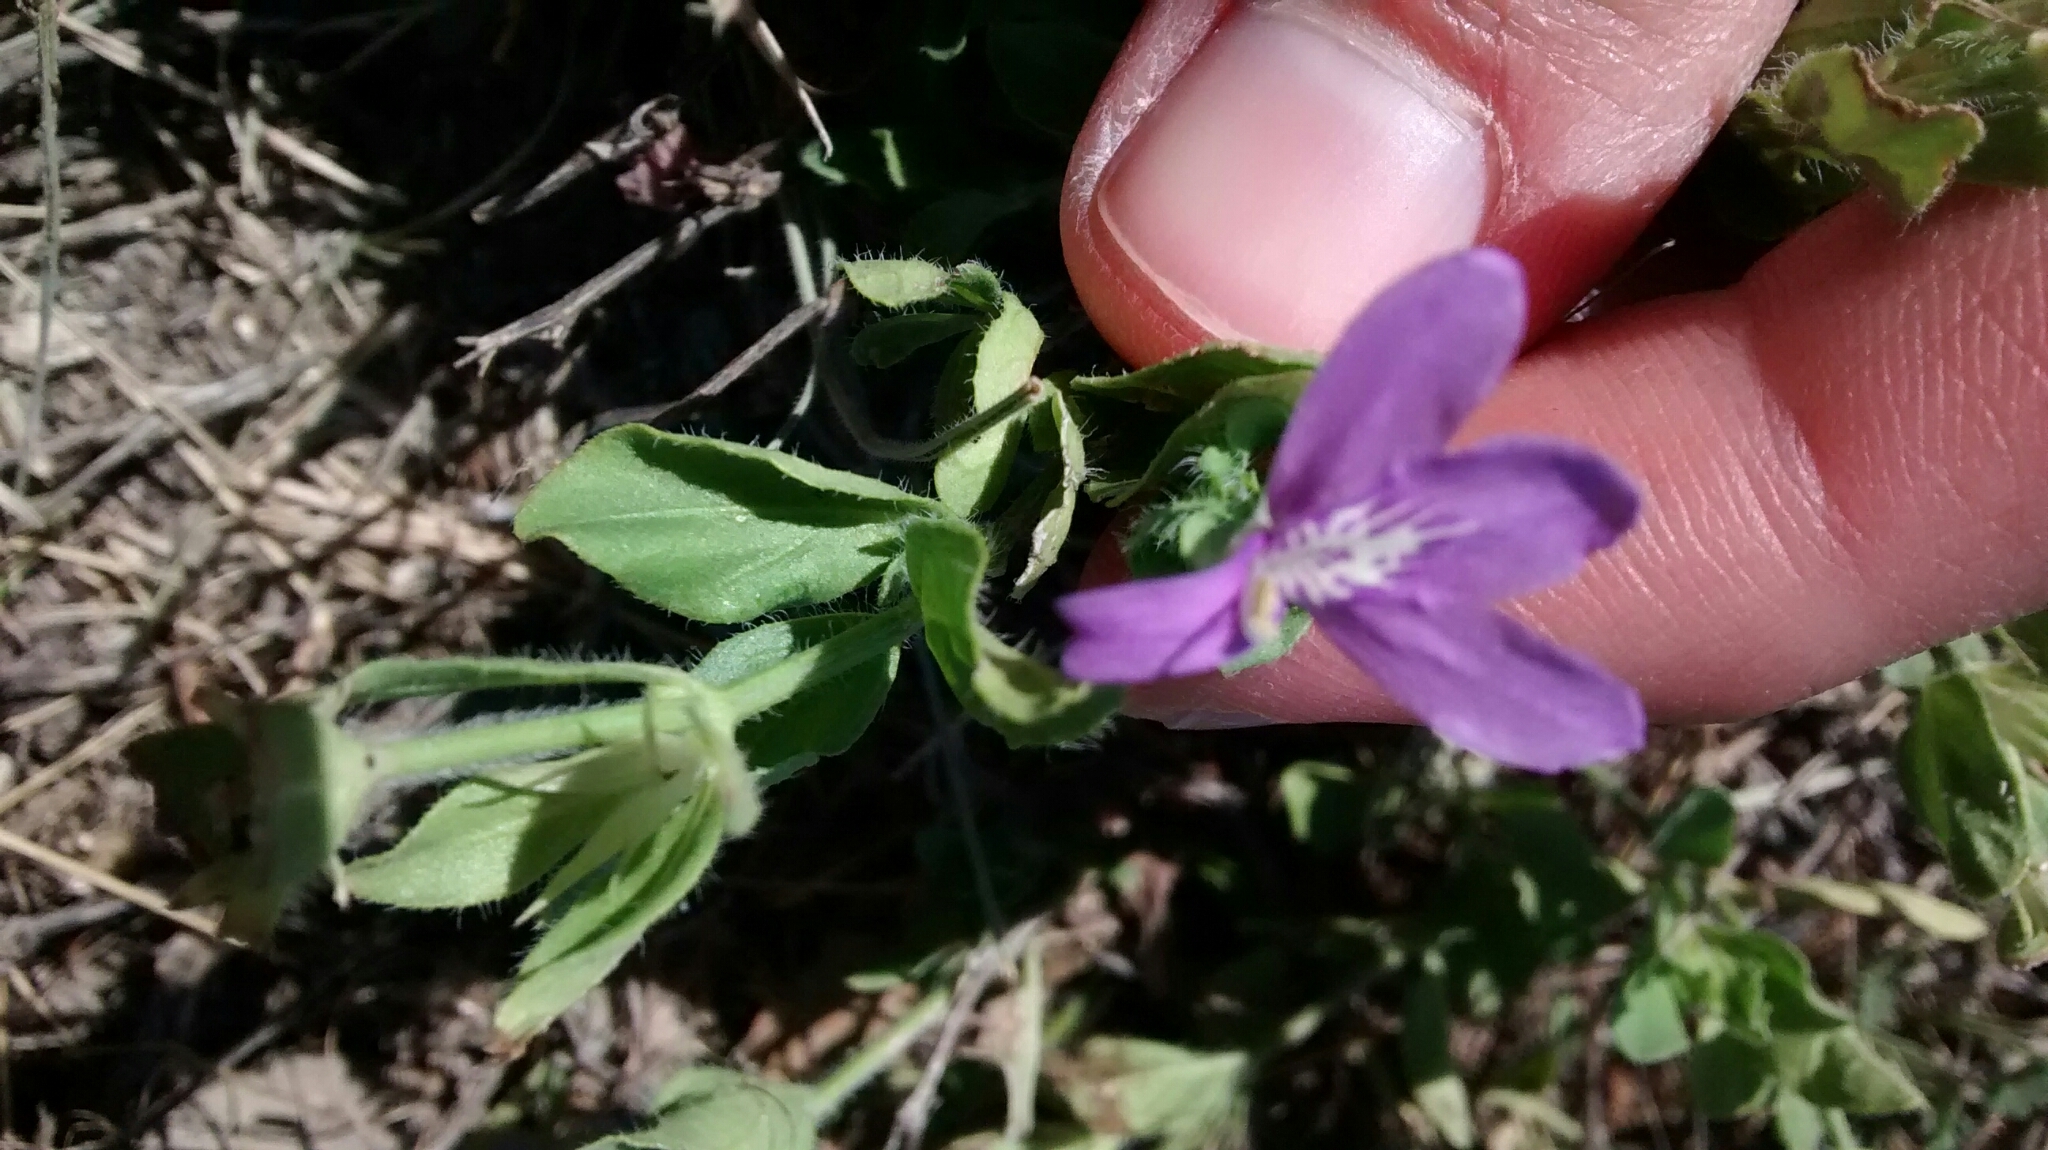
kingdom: Plantae
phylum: Tracheophyta
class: Magnoliopsida
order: Lamiales
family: Acanthaceae
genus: Justicia
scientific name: Justicia pilosella
